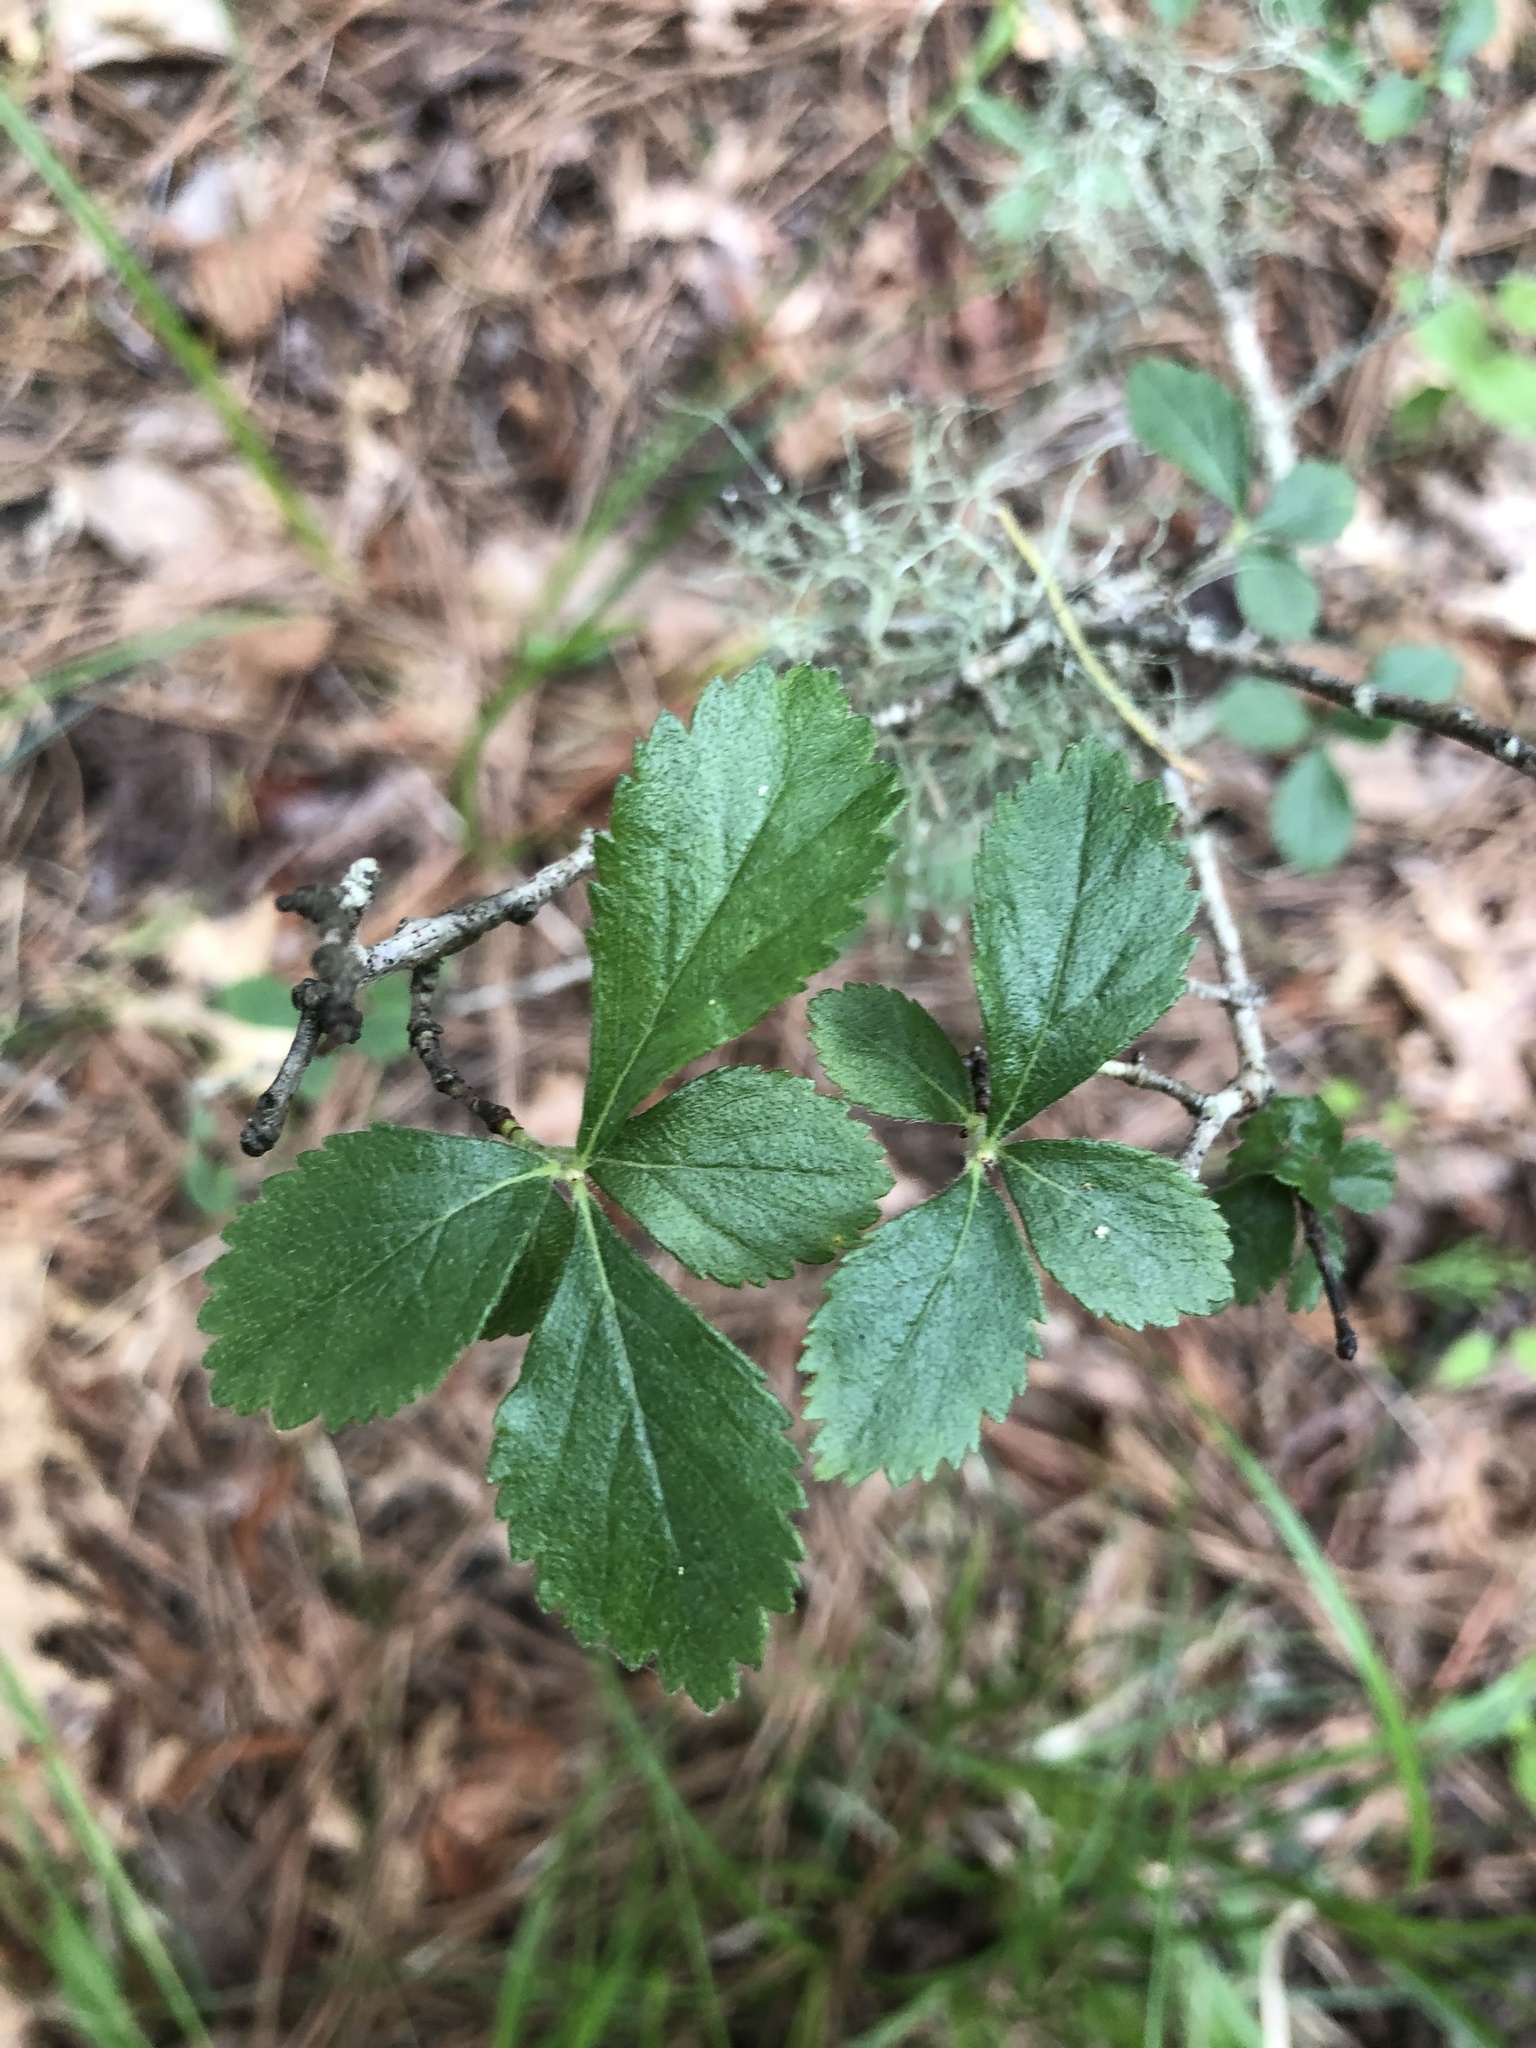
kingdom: Plantae
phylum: Tracheophyta
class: Magnoliopsida
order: Rosales
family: Rosaceae
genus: Crataegus
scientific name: Crataegus uniflora
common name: One-flower hawthorn
